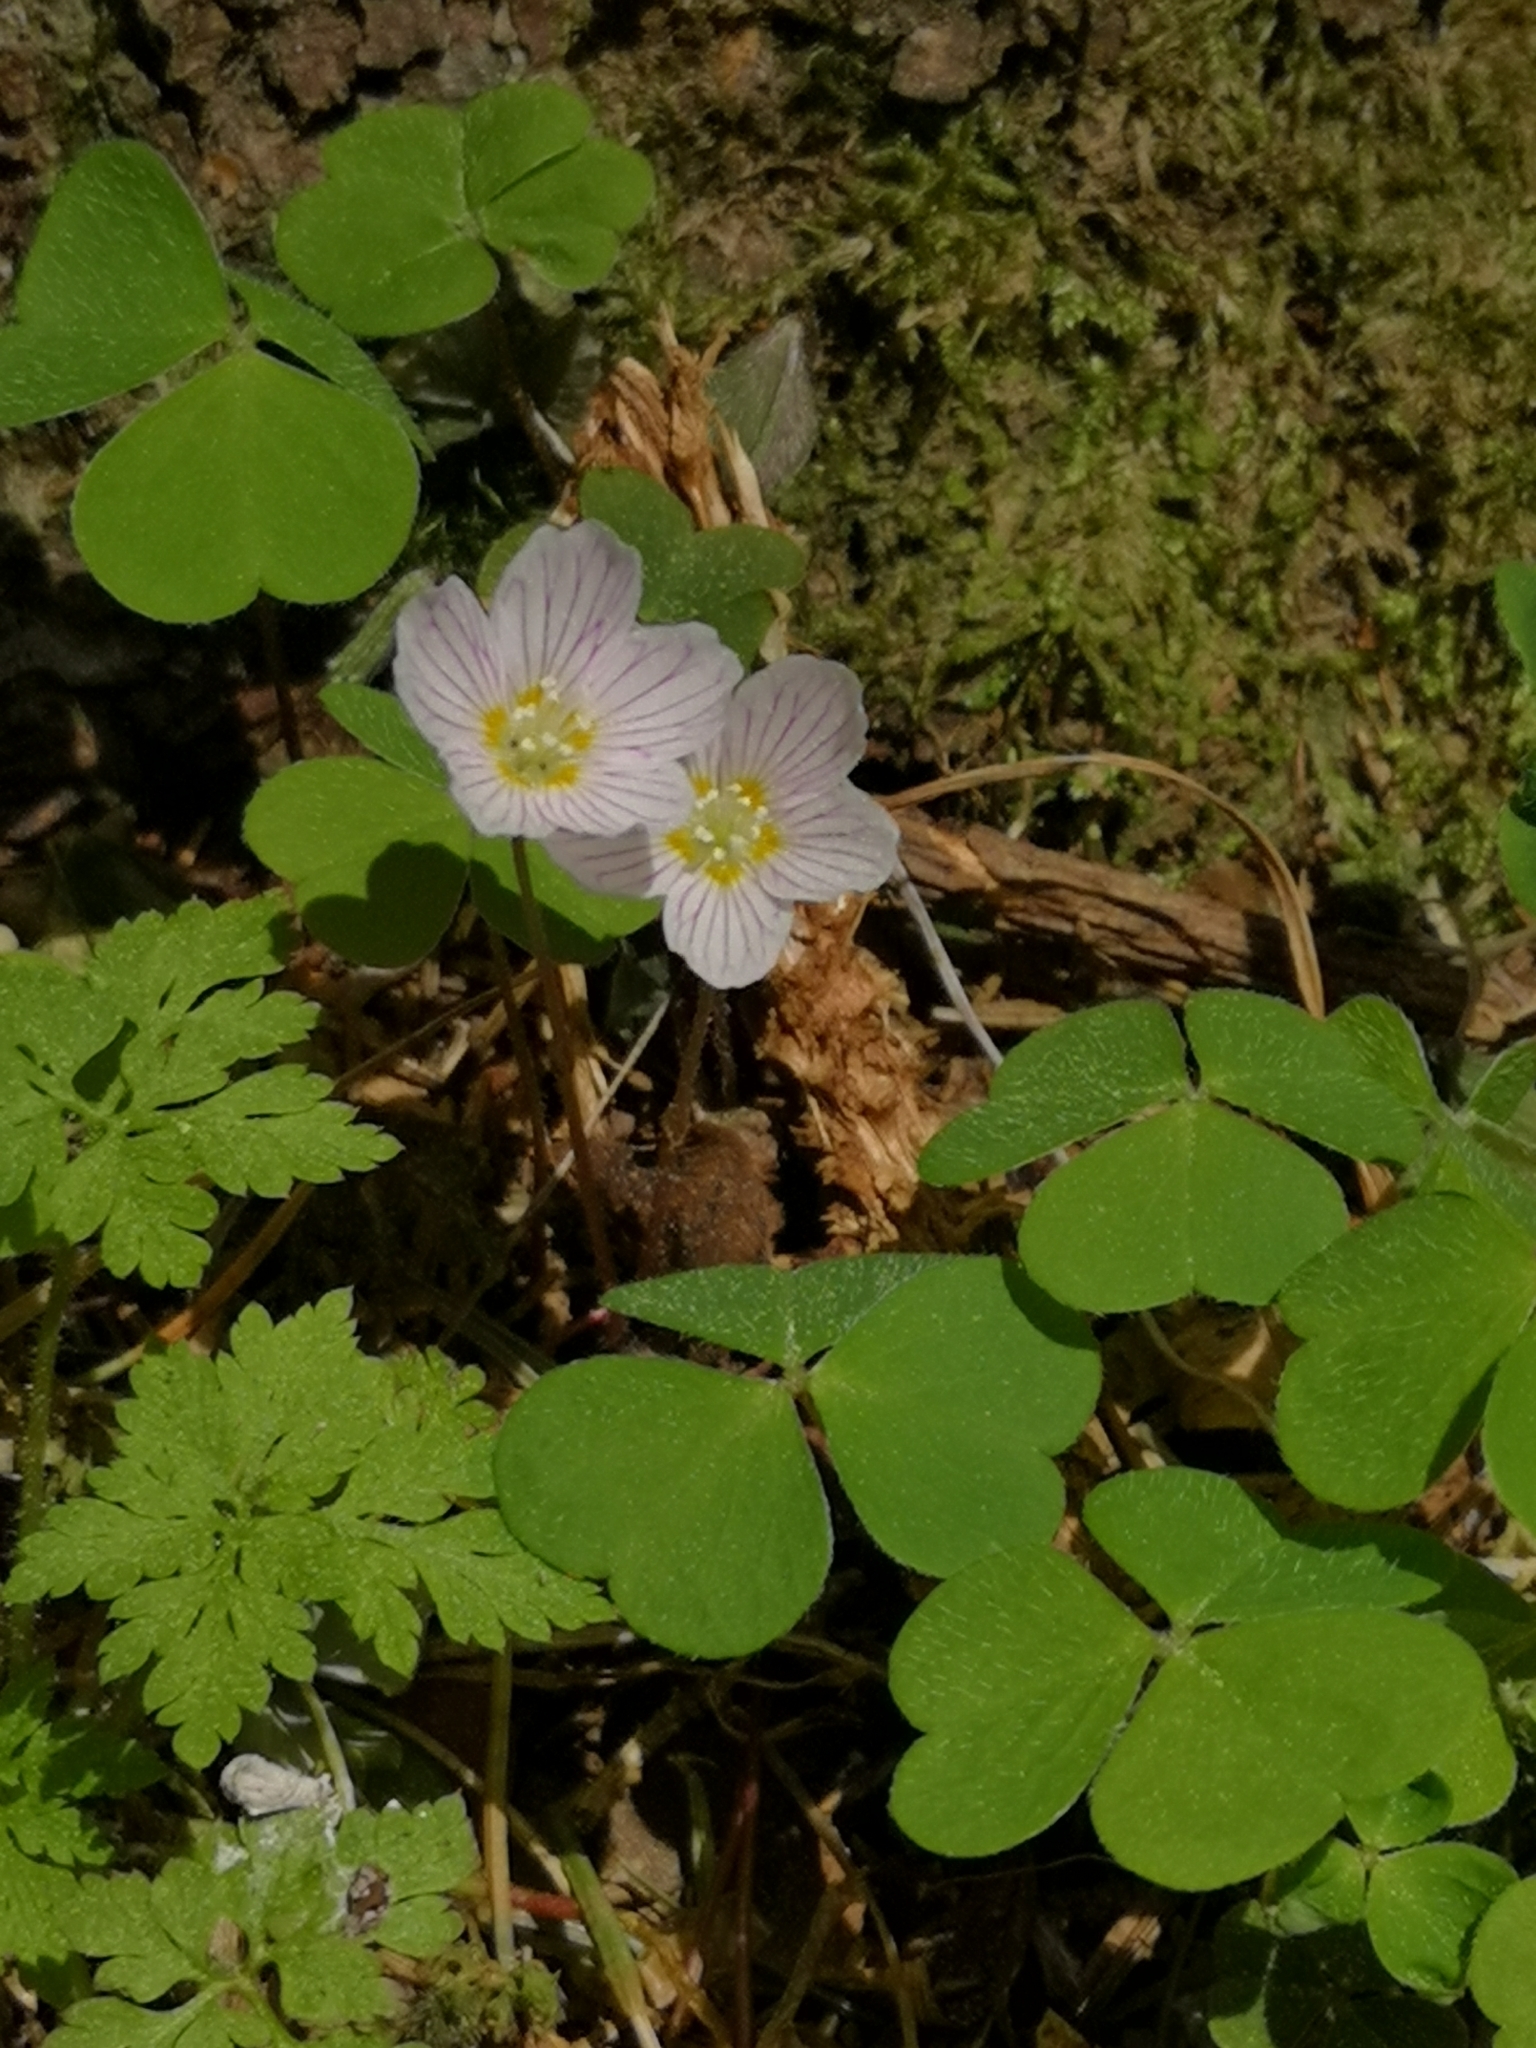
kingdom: Plantae
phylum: Tracheophyta
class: Magnoliopsida
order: Oxalidales
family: Oxalidaceae
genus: Oxalis
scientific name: Oxalis acetosella
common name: Wood-sorrel
